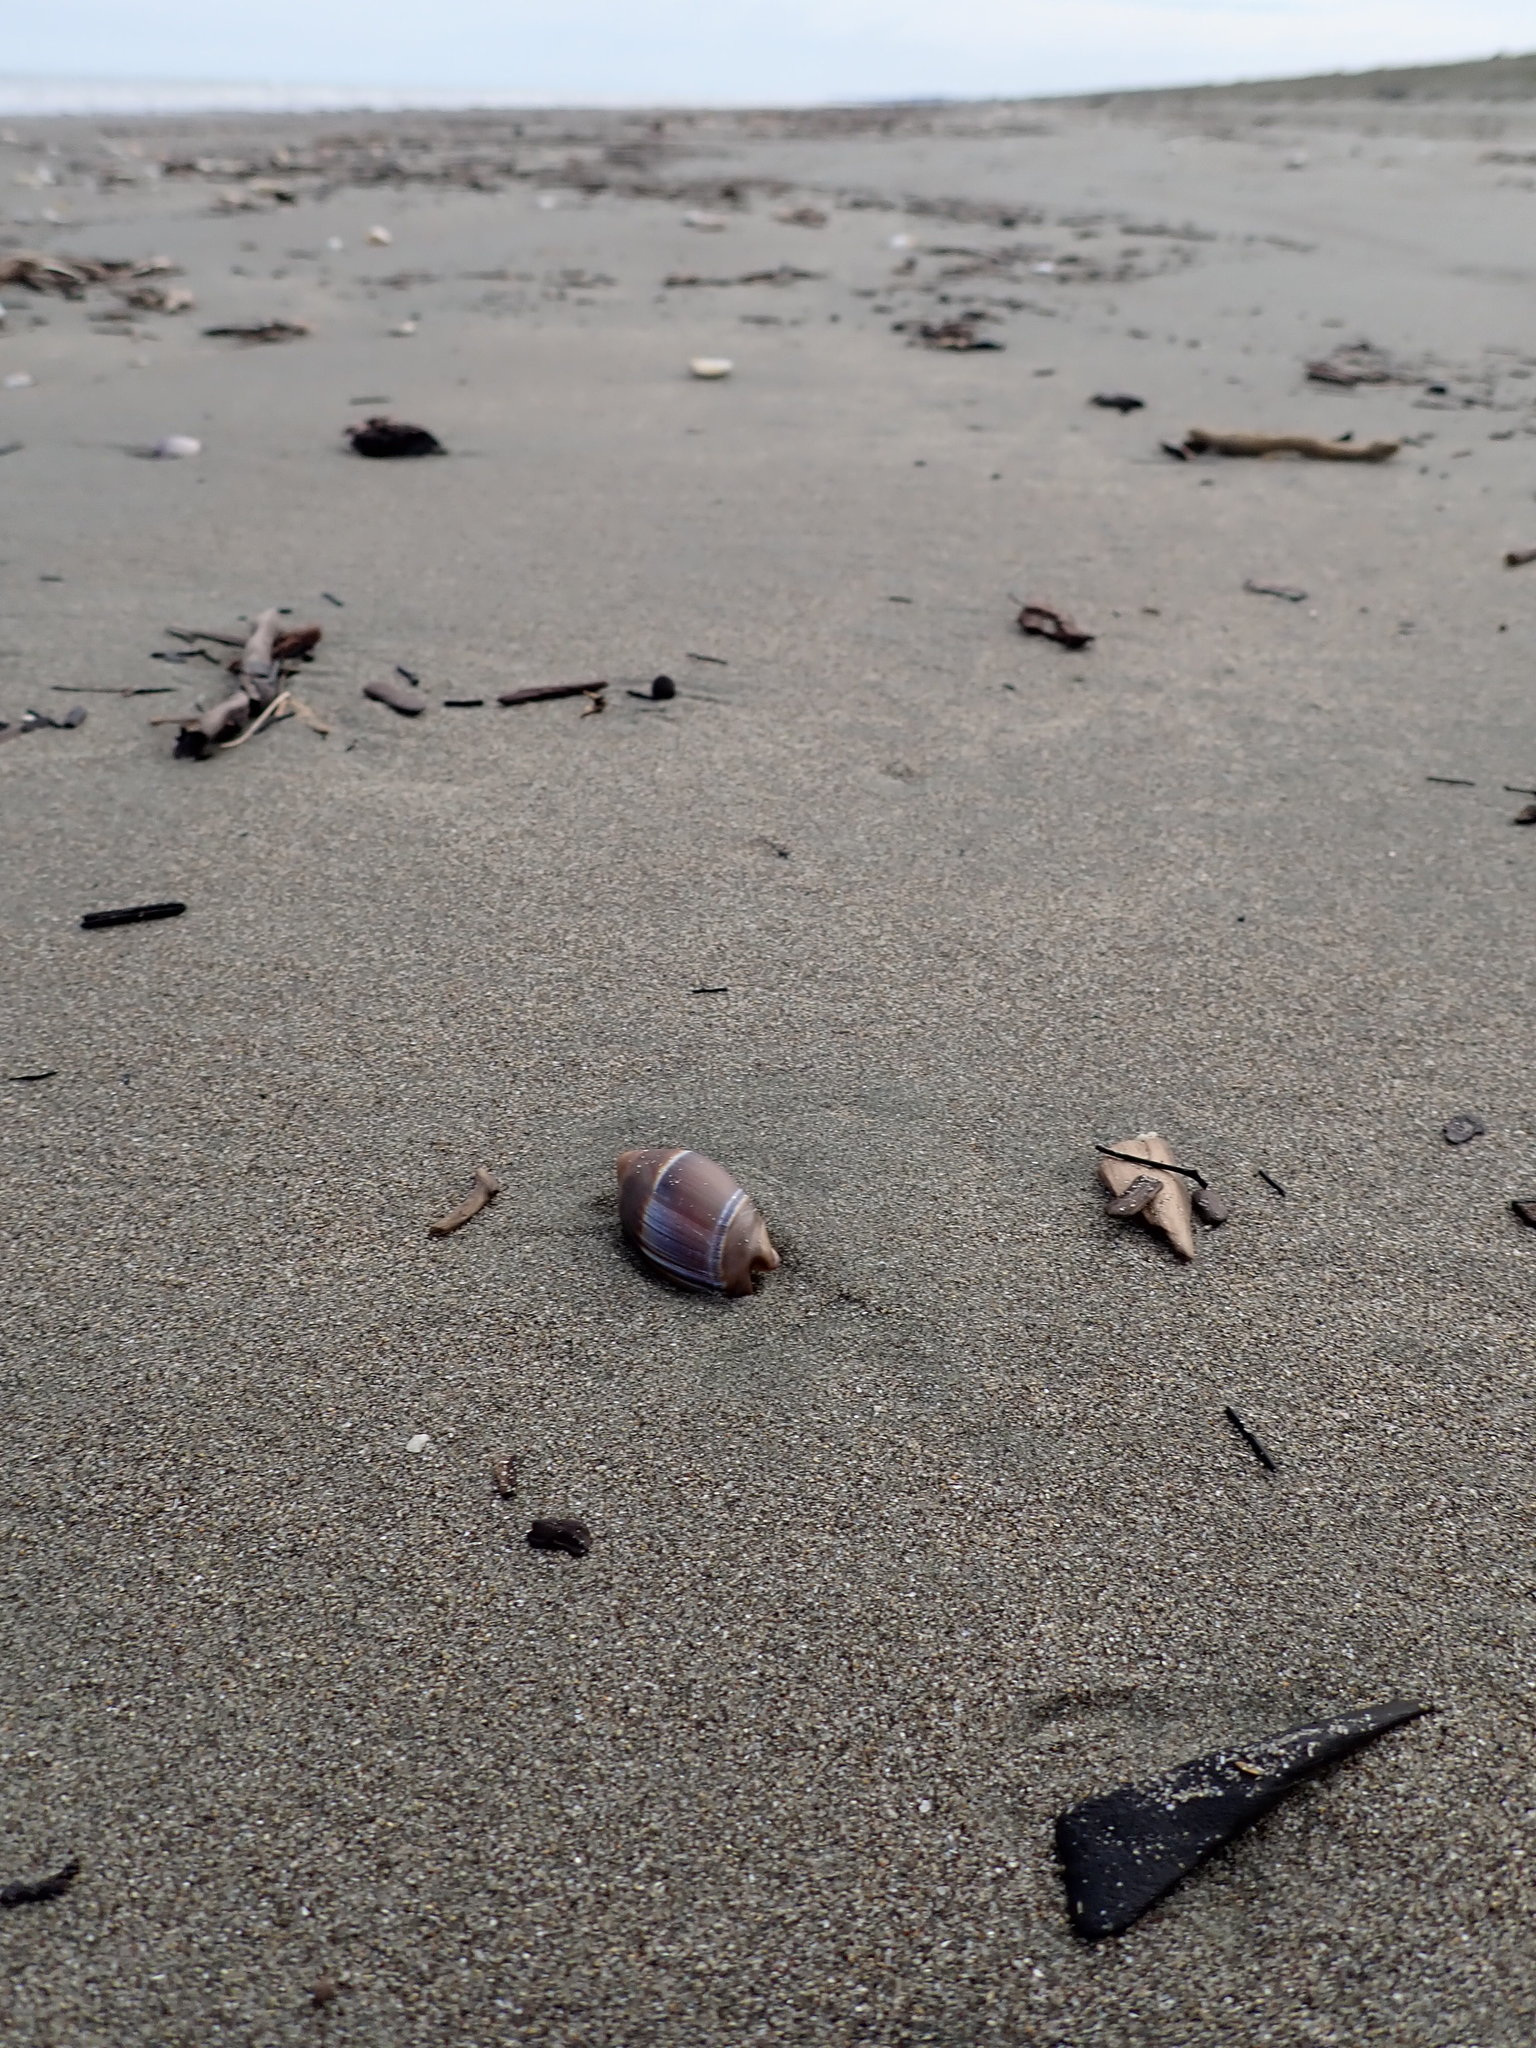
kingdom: Animalia
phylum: Mollusca
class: Gastropoda
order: Neogastropoda
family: Ancillariidae
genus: Amalda
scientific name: Amalda australis
